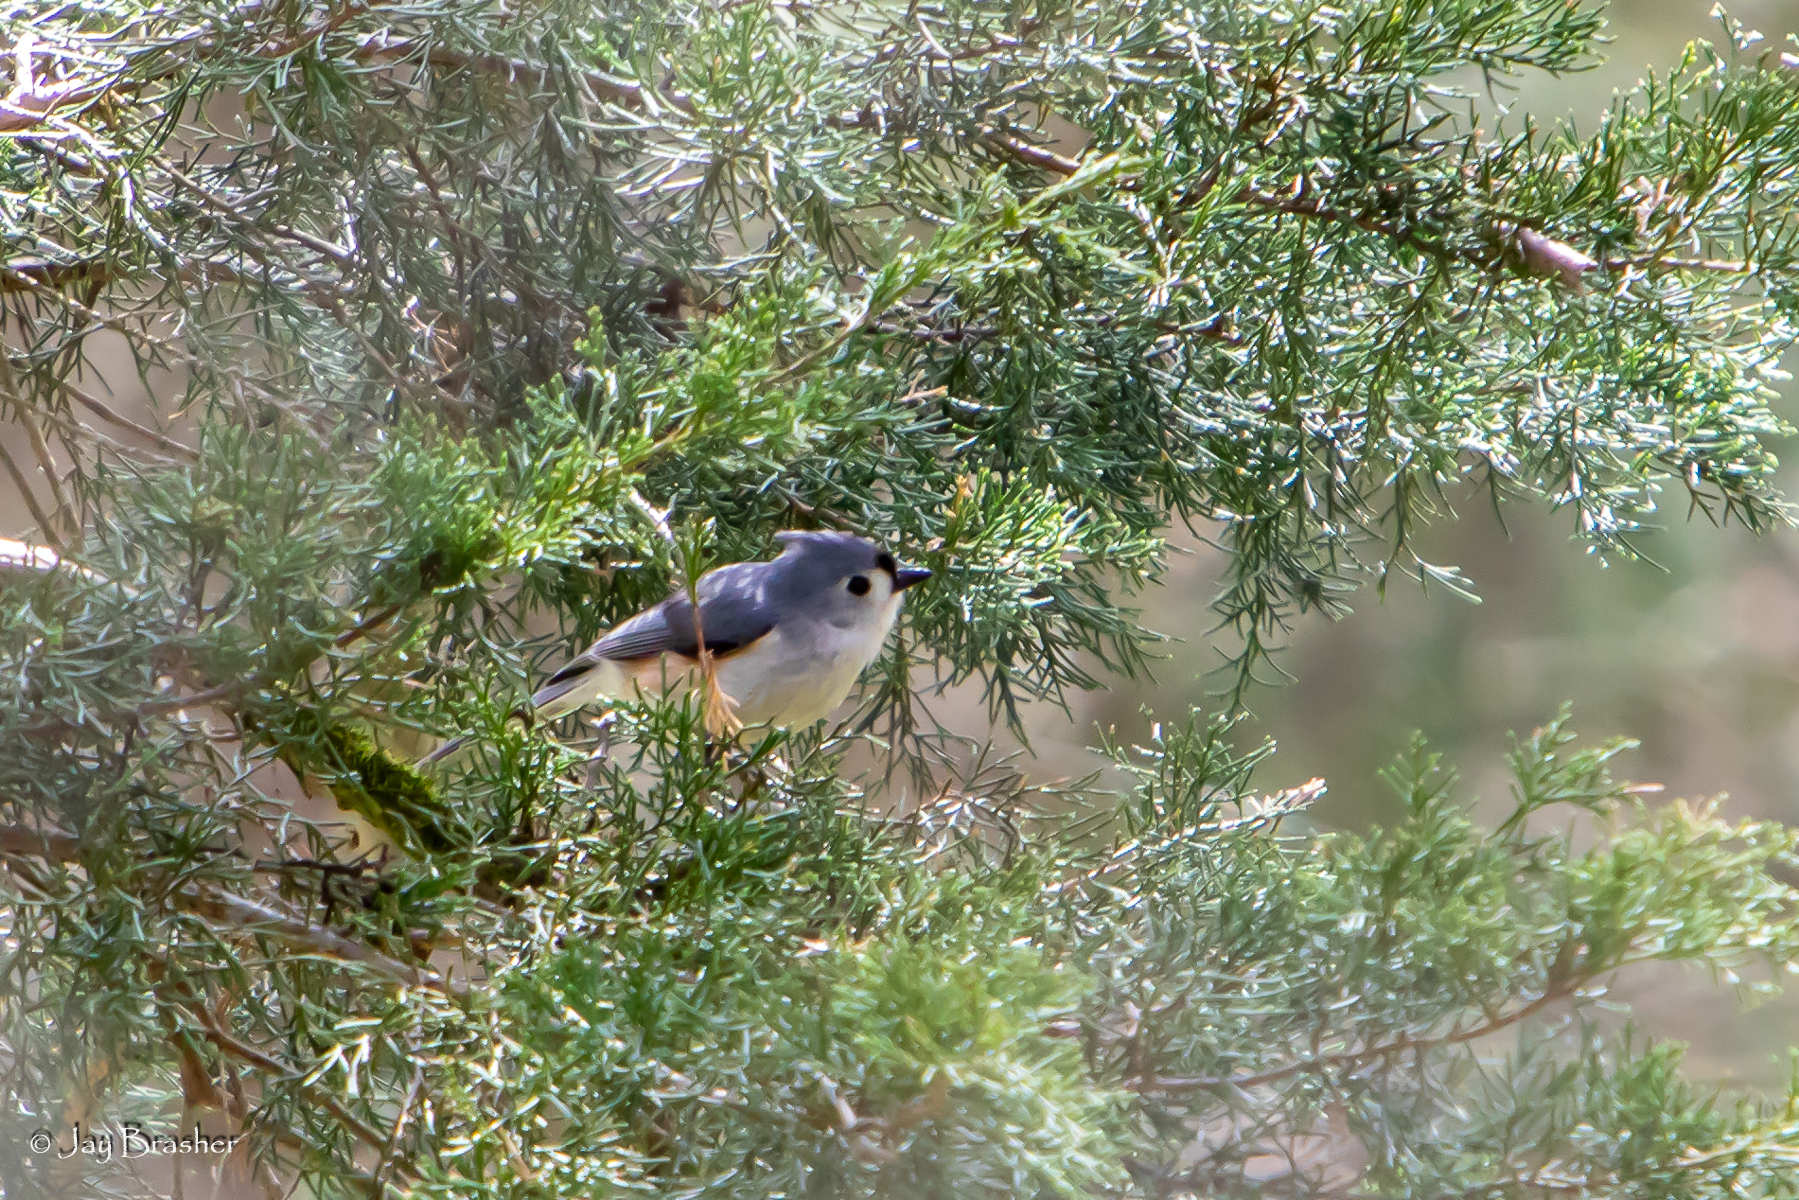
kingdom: Animalia
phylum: Chordata
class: Aves
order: Passeriformes
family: Paridae
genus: Baeolophus
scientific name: Baeolophus bicolor
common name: Tufted titmouse
